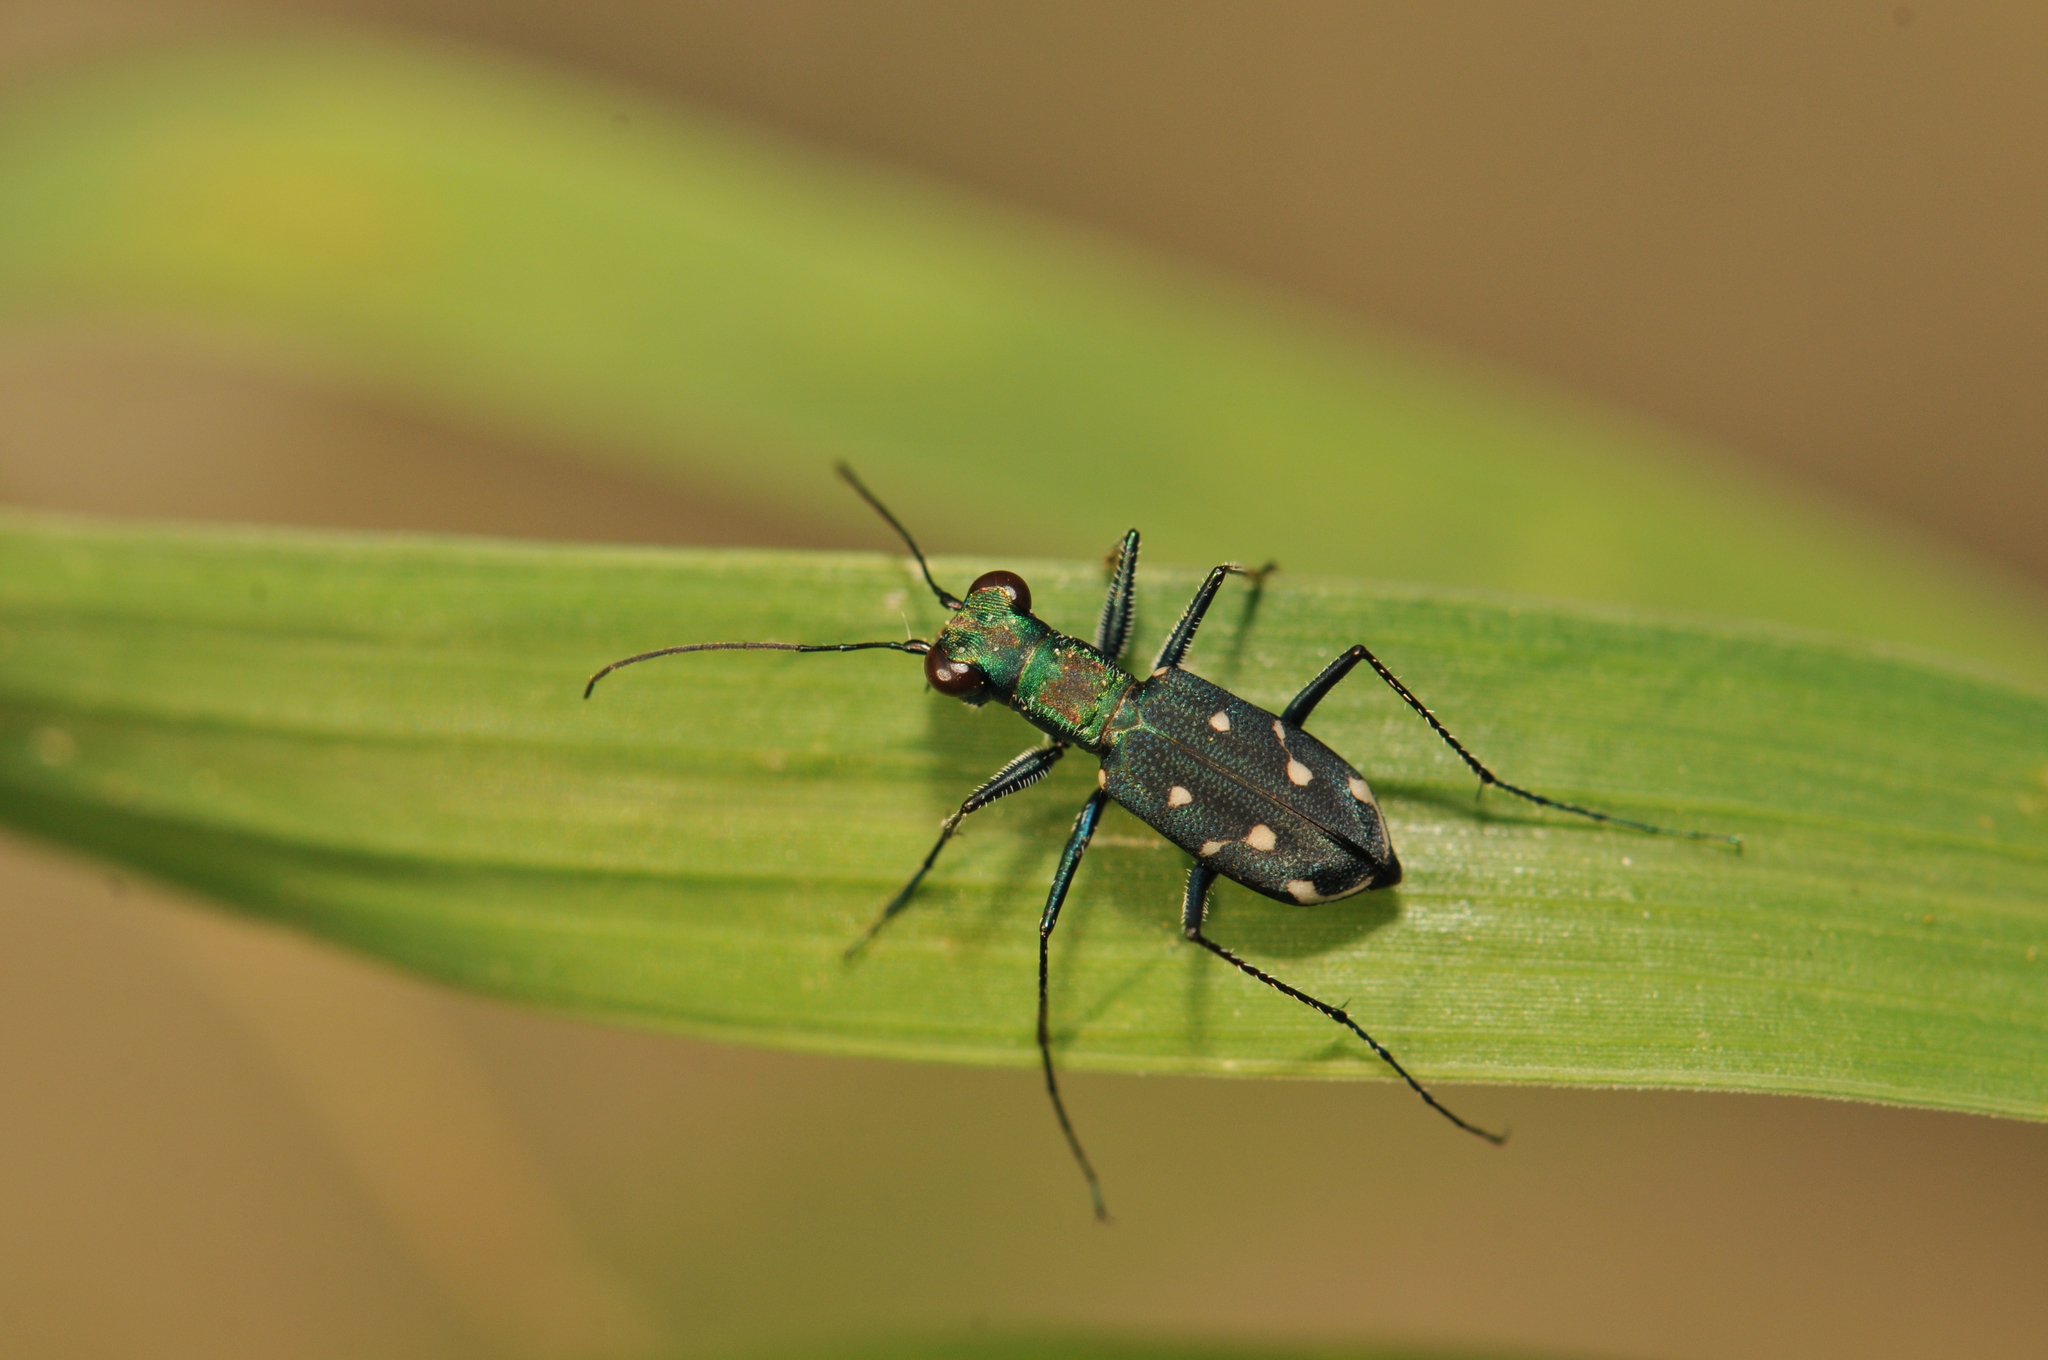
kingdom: Animalia
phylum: Arthropoda
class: Insecta
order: Coleoptera
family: Carabidae
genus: Cylindera
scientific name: Cylindera kaleea
